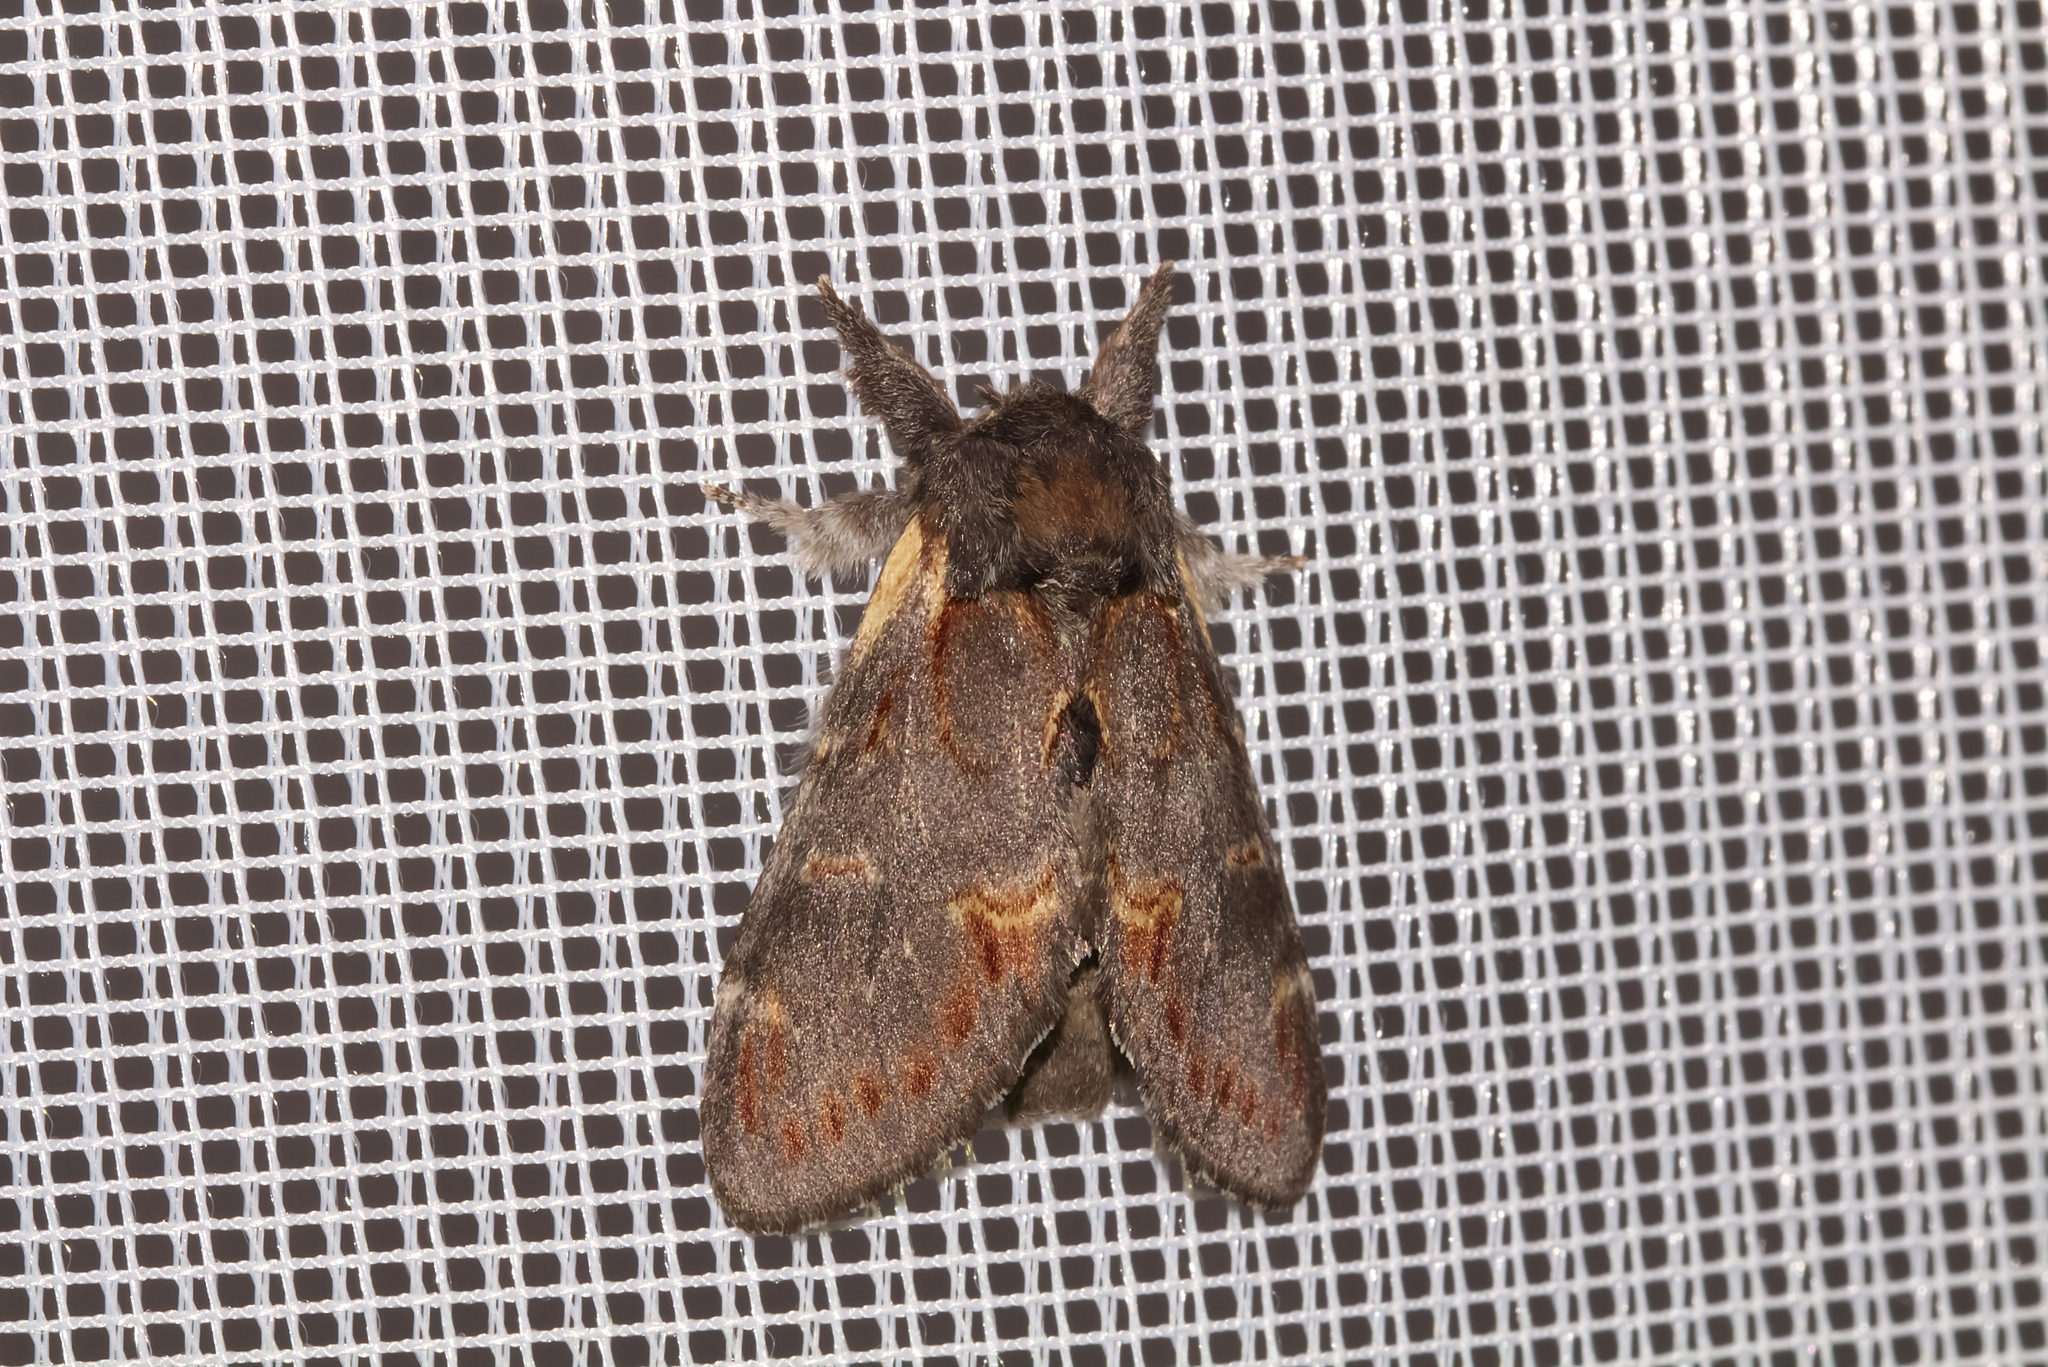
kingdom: Animalia
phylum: Arthropoda
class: Insecta
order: Lepidoptera
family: Notodontidae
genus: Notodonta
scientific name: Notodonta dromedarius
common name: Iron prominent
